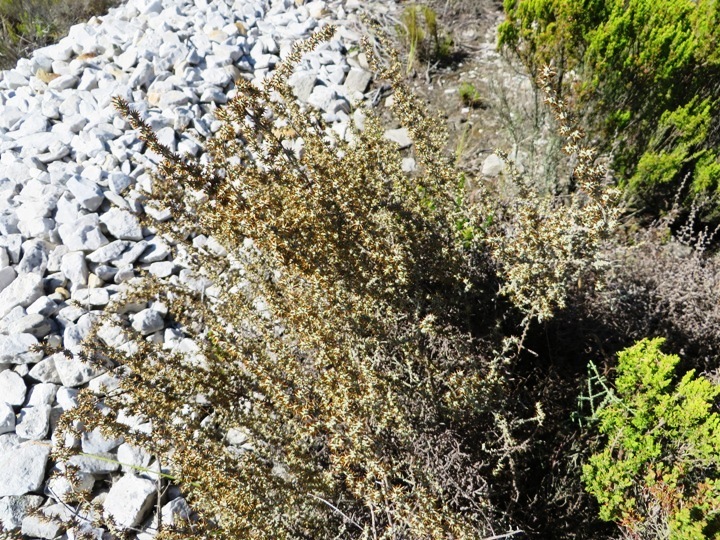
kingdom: Plantae
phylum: Tracheophyta
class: Magnoliopsida
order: Asterales
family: Asteraceae
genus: Seriphium
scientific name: Seriphium plumosum
